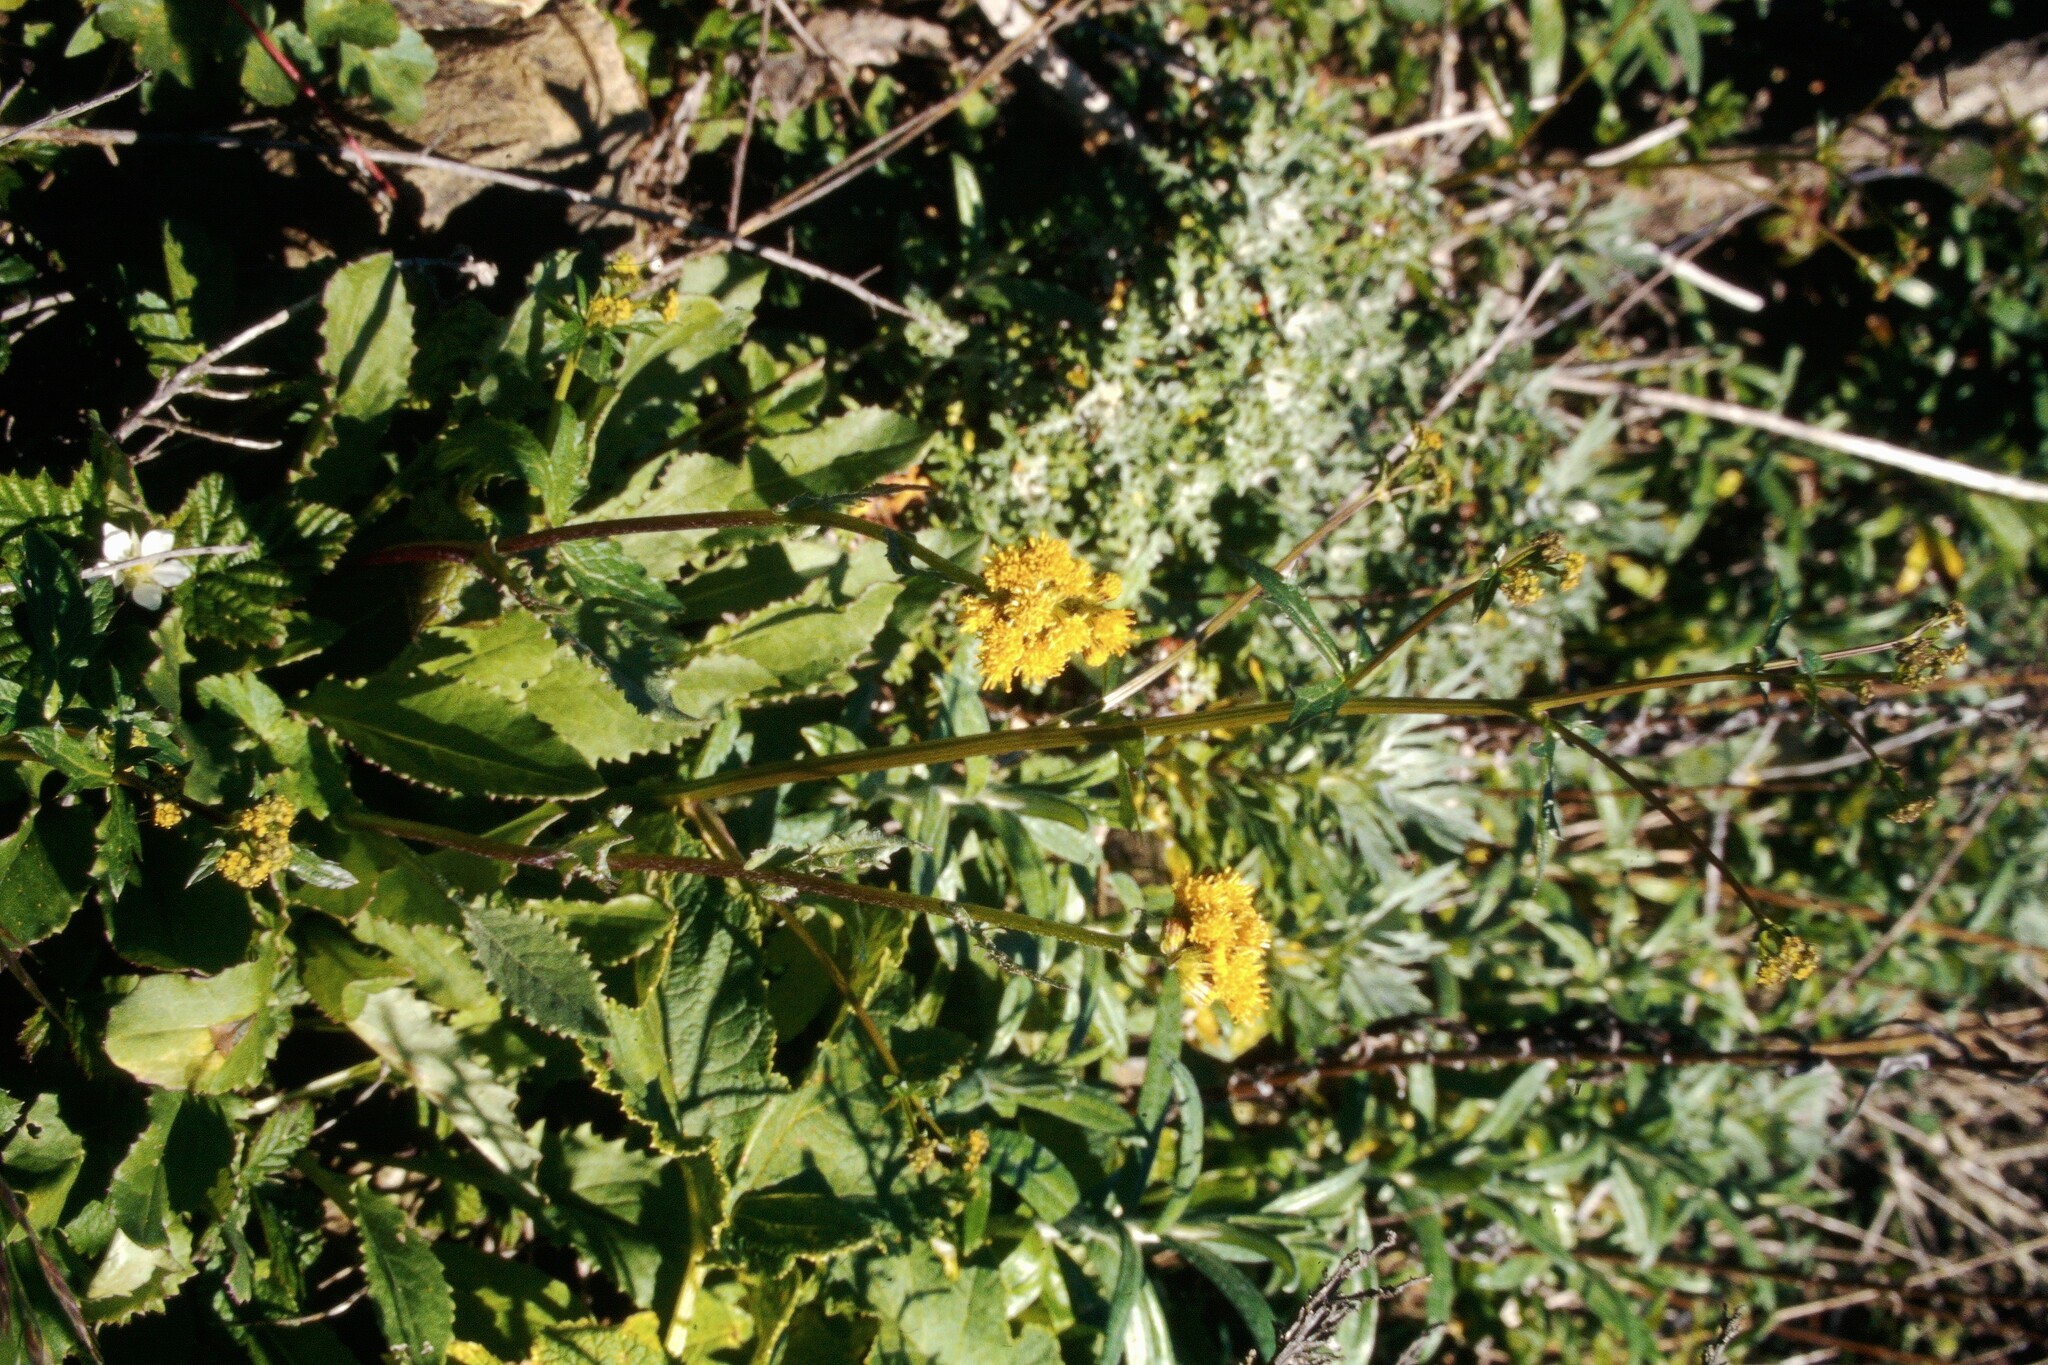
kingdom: Plantae
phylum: Tracheophyta
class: Magnoliopsida
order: Asterales
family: Asteraceae
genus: Senecio
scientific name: Senecio aronicoides
